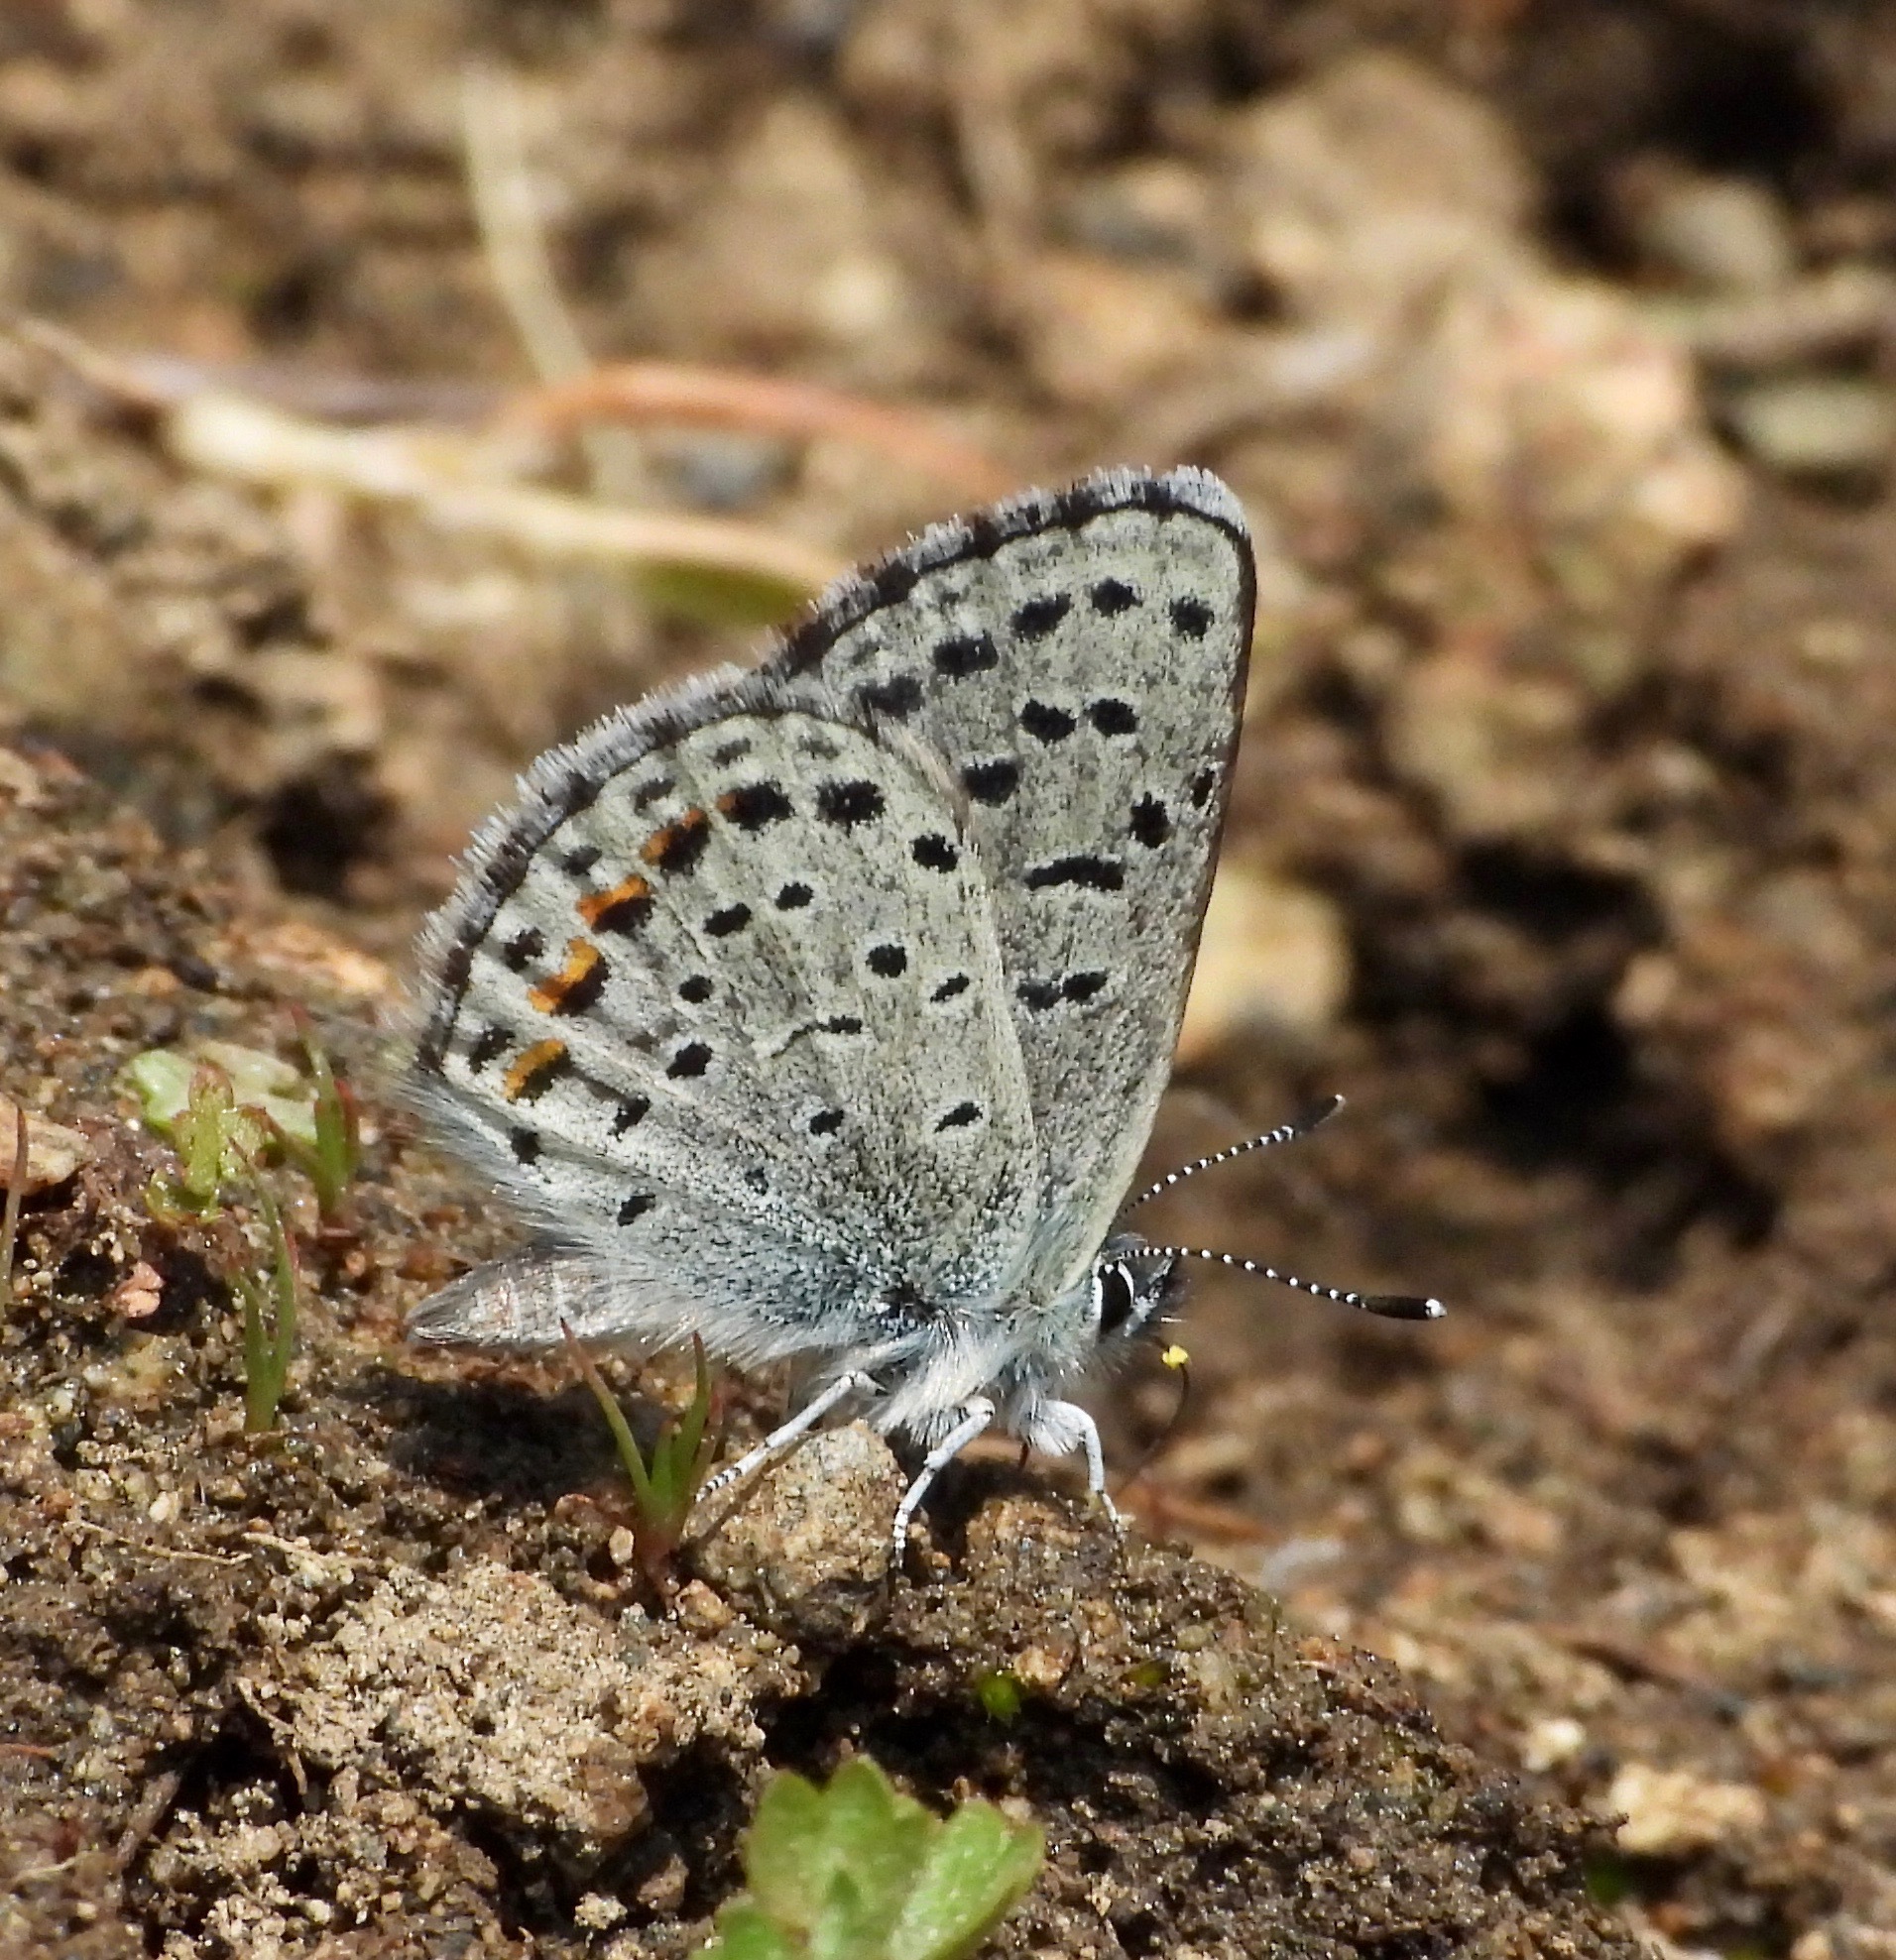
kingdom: Animalia
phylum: Arthropoda
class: Insecta
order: Lepidoptera
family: Lycaenidae
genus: Euphilotes
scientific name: Euphilotes enoptes
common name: Dotted blue
